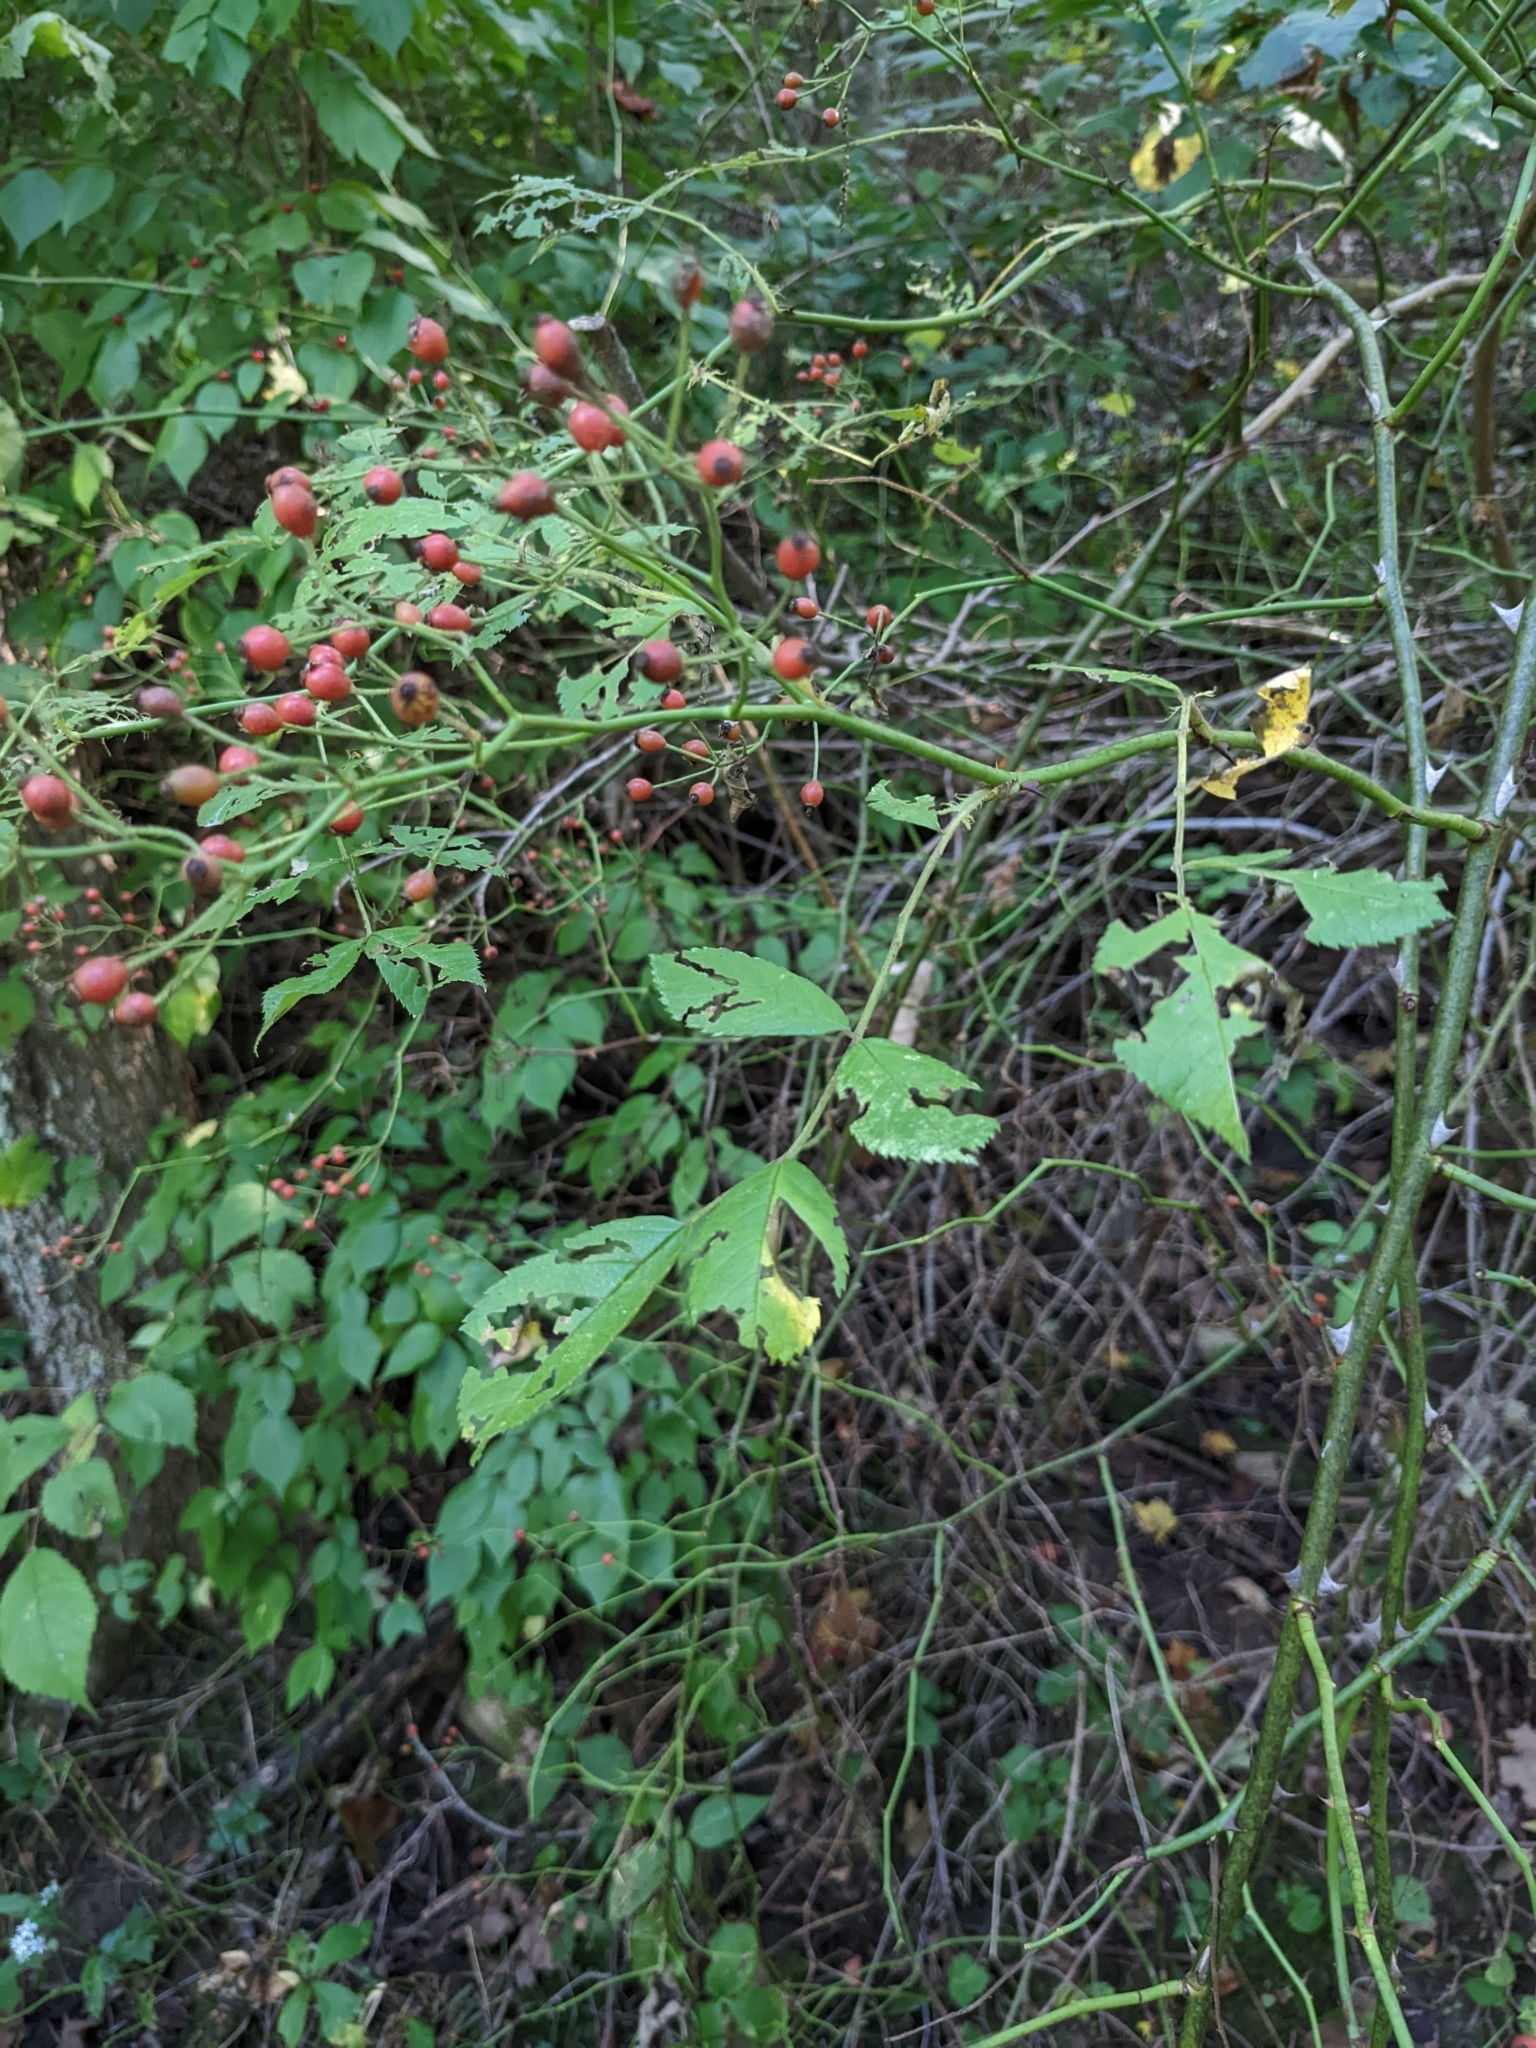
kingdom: Plantae
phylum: Tracheophyta
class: Magnoliopsida
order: Rosales
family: Rosaceae
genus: Rosa
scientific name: Rosa multiflora
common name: Multiflora rose
